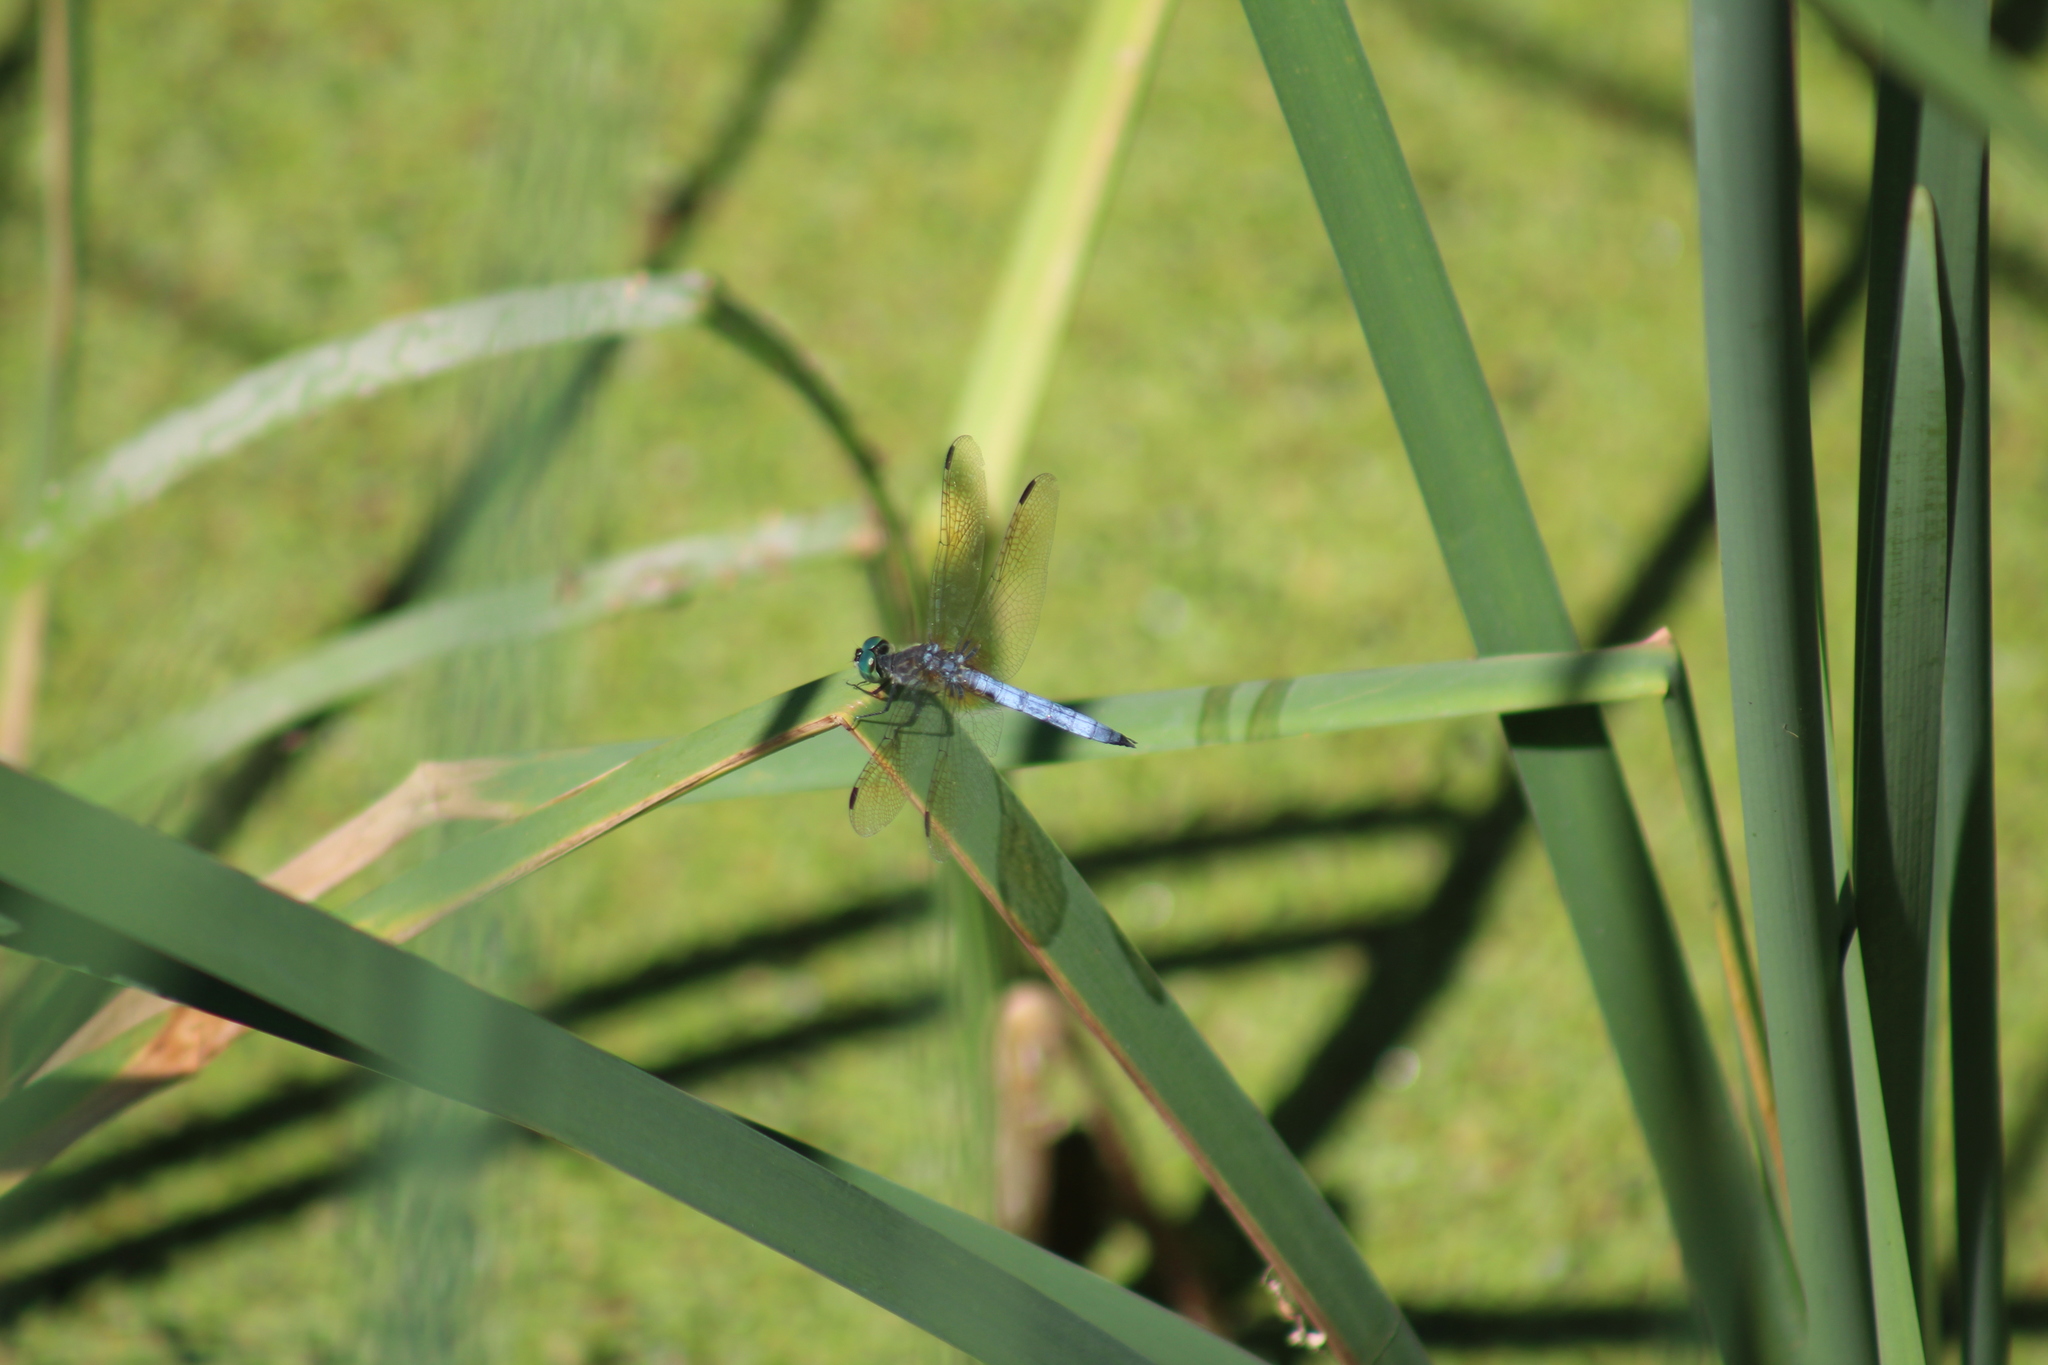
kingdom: Animalia
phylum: Arthropoda
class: Insecta
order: Odonata
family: Libellulidae
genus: Pachydiplax
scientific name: Pachydiplax longipennis
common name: Blue dasher
